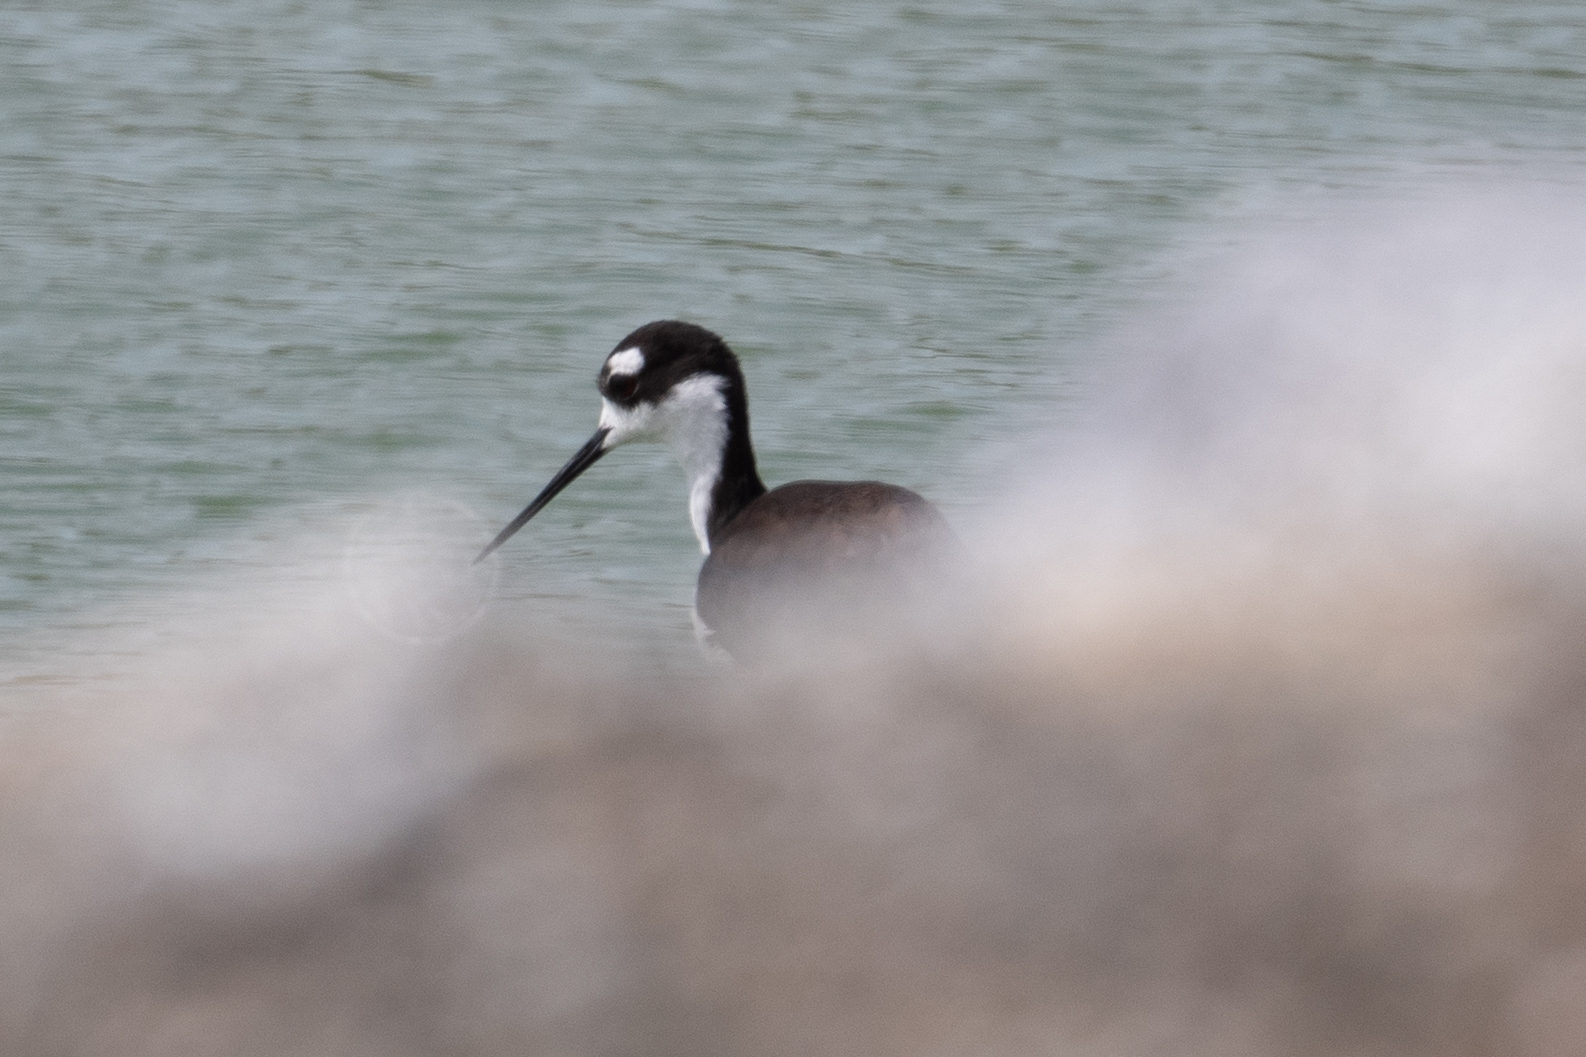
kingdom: Animalia
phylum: Chordata
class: Aves
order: Charadriiformes
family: Recurvirostridae
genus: Himantopus
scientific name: Himantopus mexicanus
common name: Black-necked stilt
